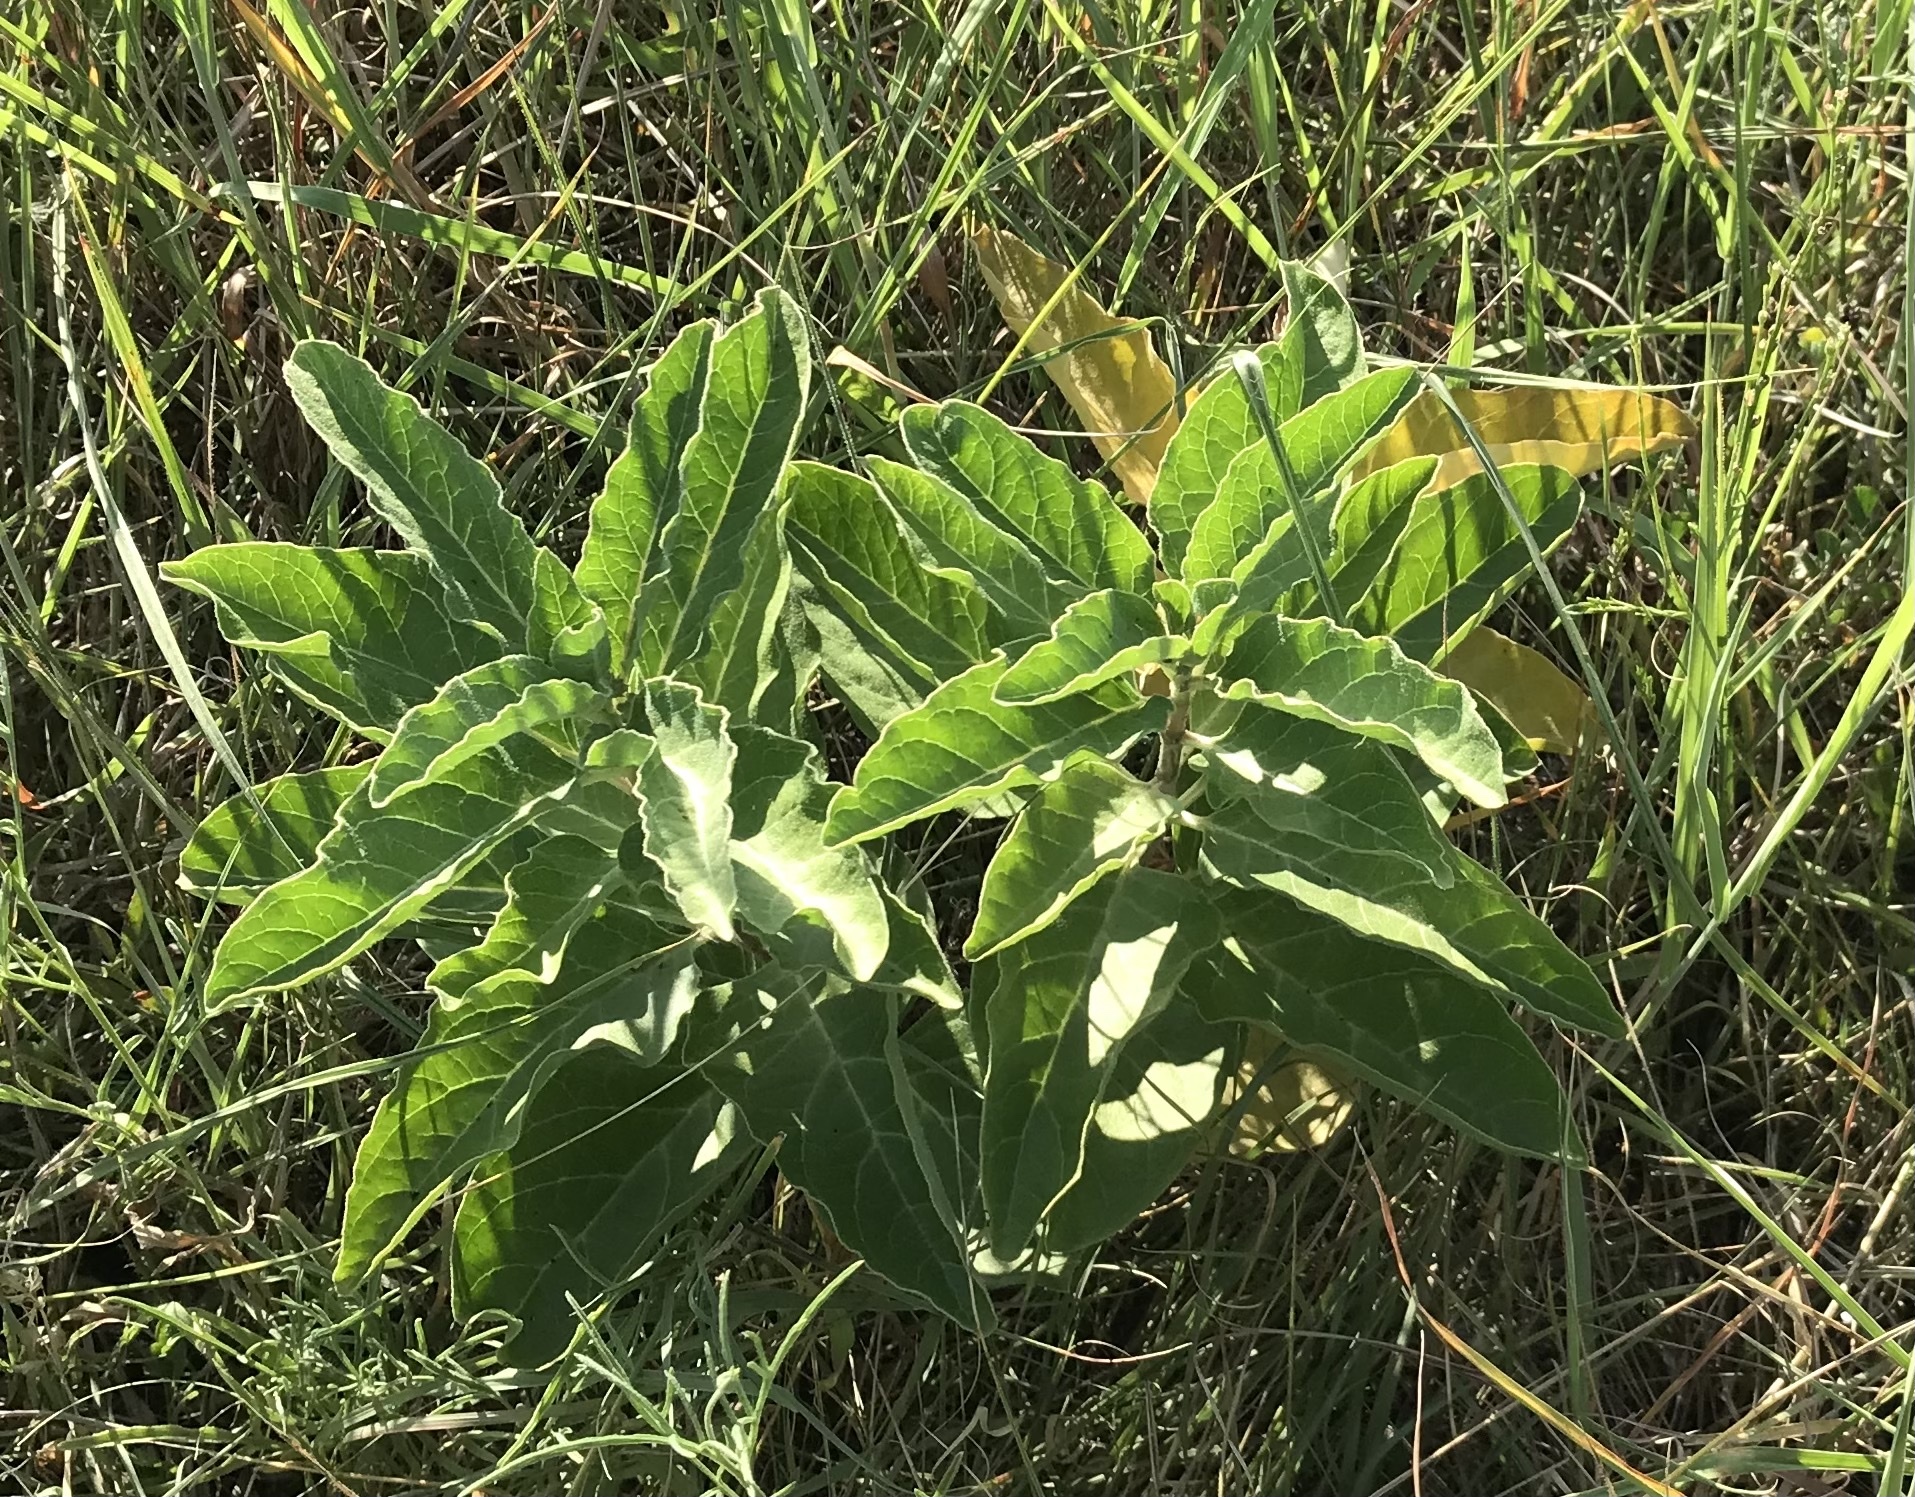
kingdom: Plantae
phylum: Tracheophyta
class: Magnoliopsida
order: Gentianales
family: Apocynaceae
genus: Asclepias
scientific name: Asclepias oenotheroides
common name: Zizotes milkweed
